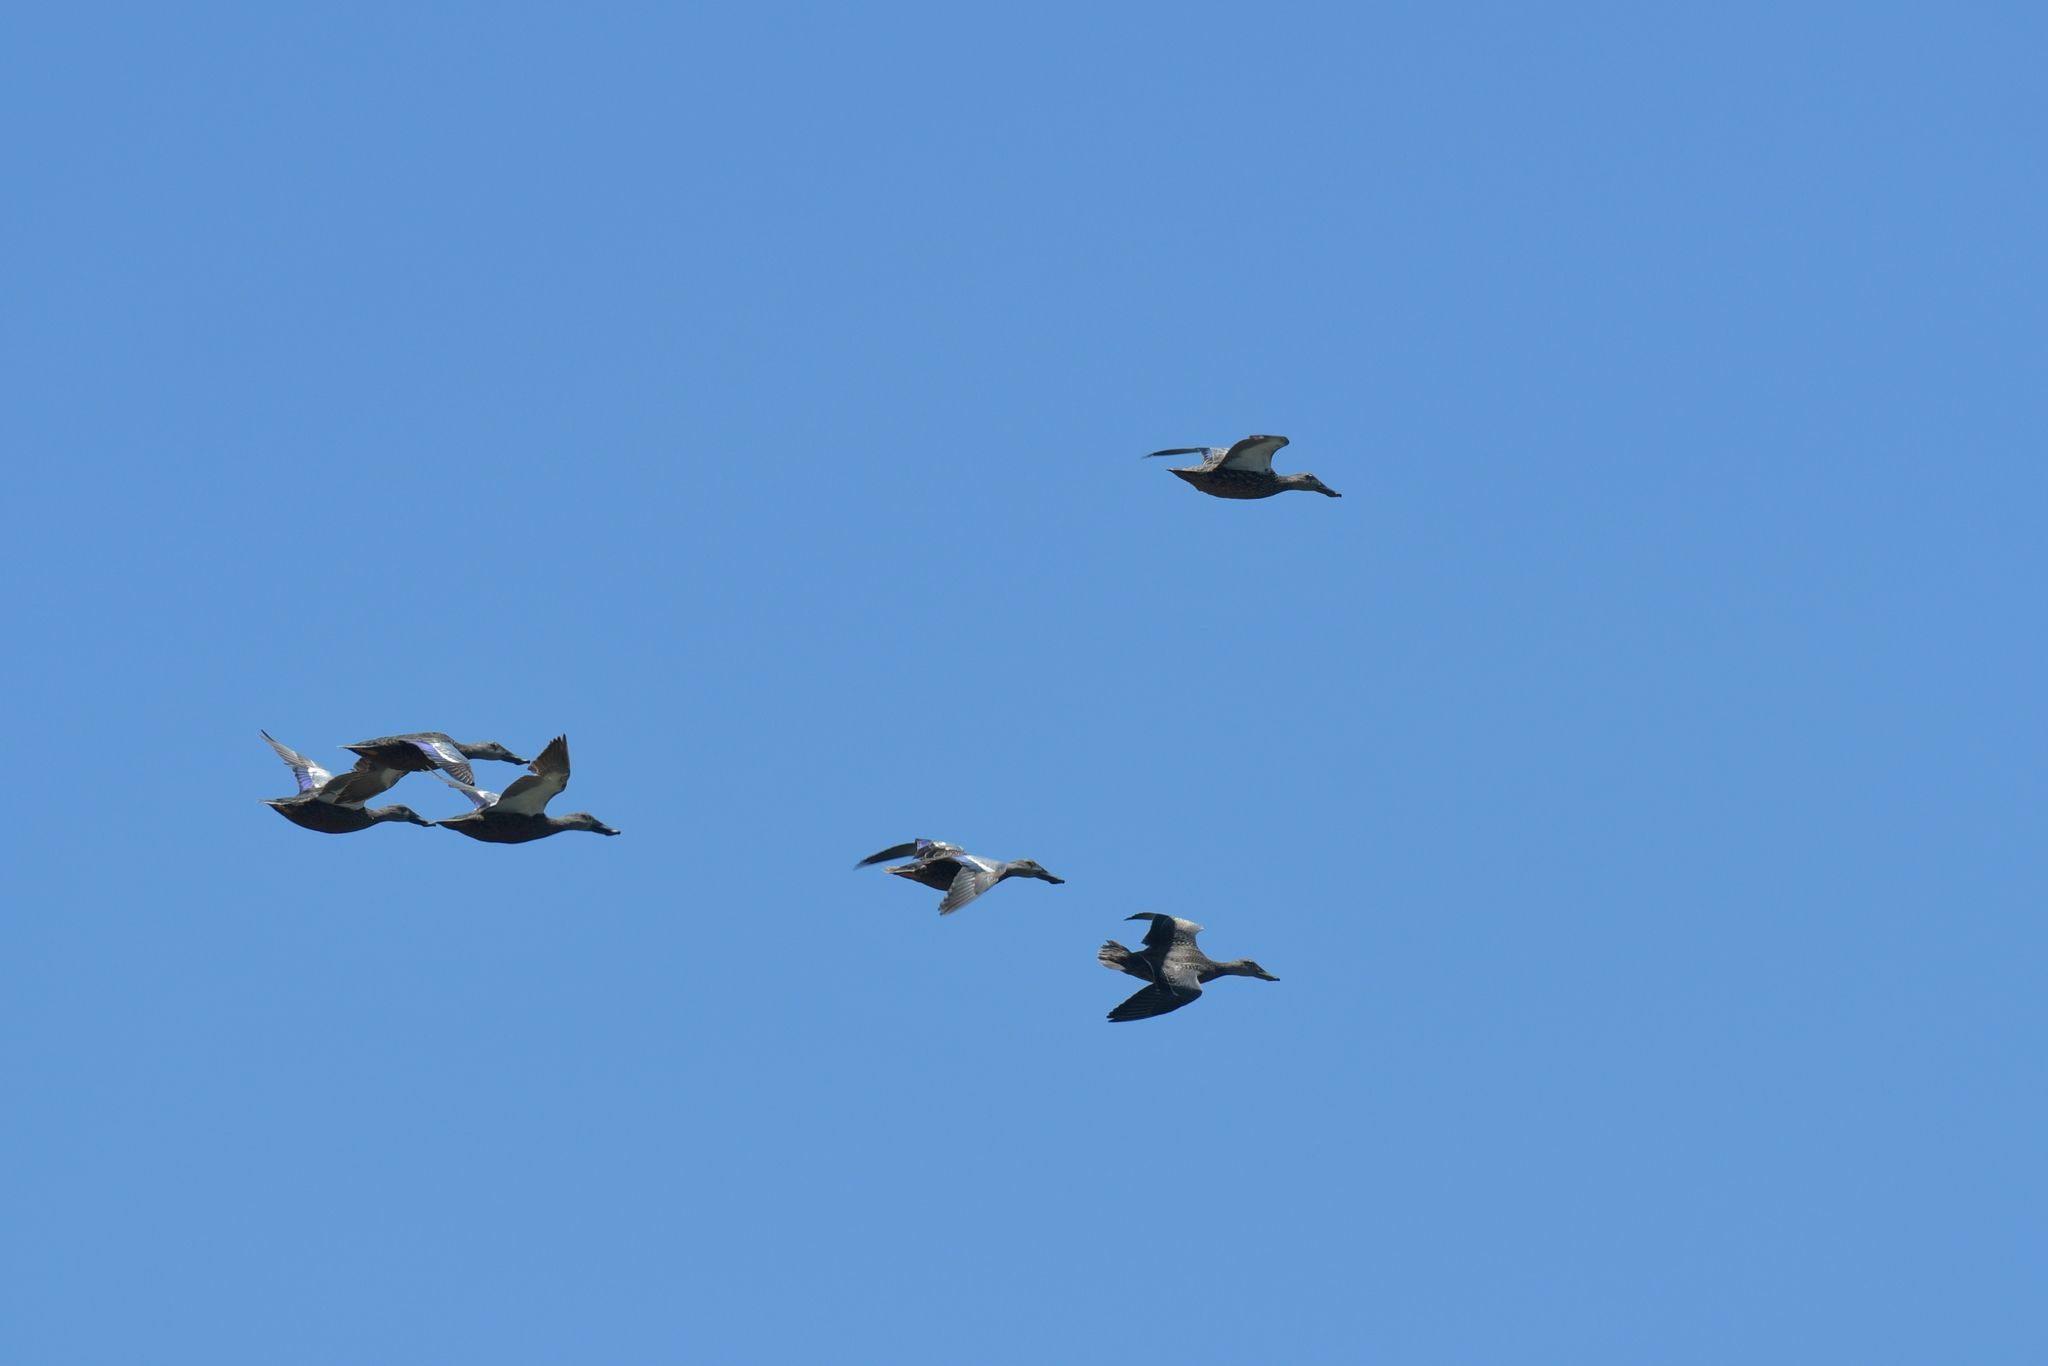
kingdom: Animalia
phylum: Chordata
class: Aves
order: Anseriformes
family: Anatidae
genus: Spatula
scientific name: Spatula rhynchotis
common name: Australian shoveler
